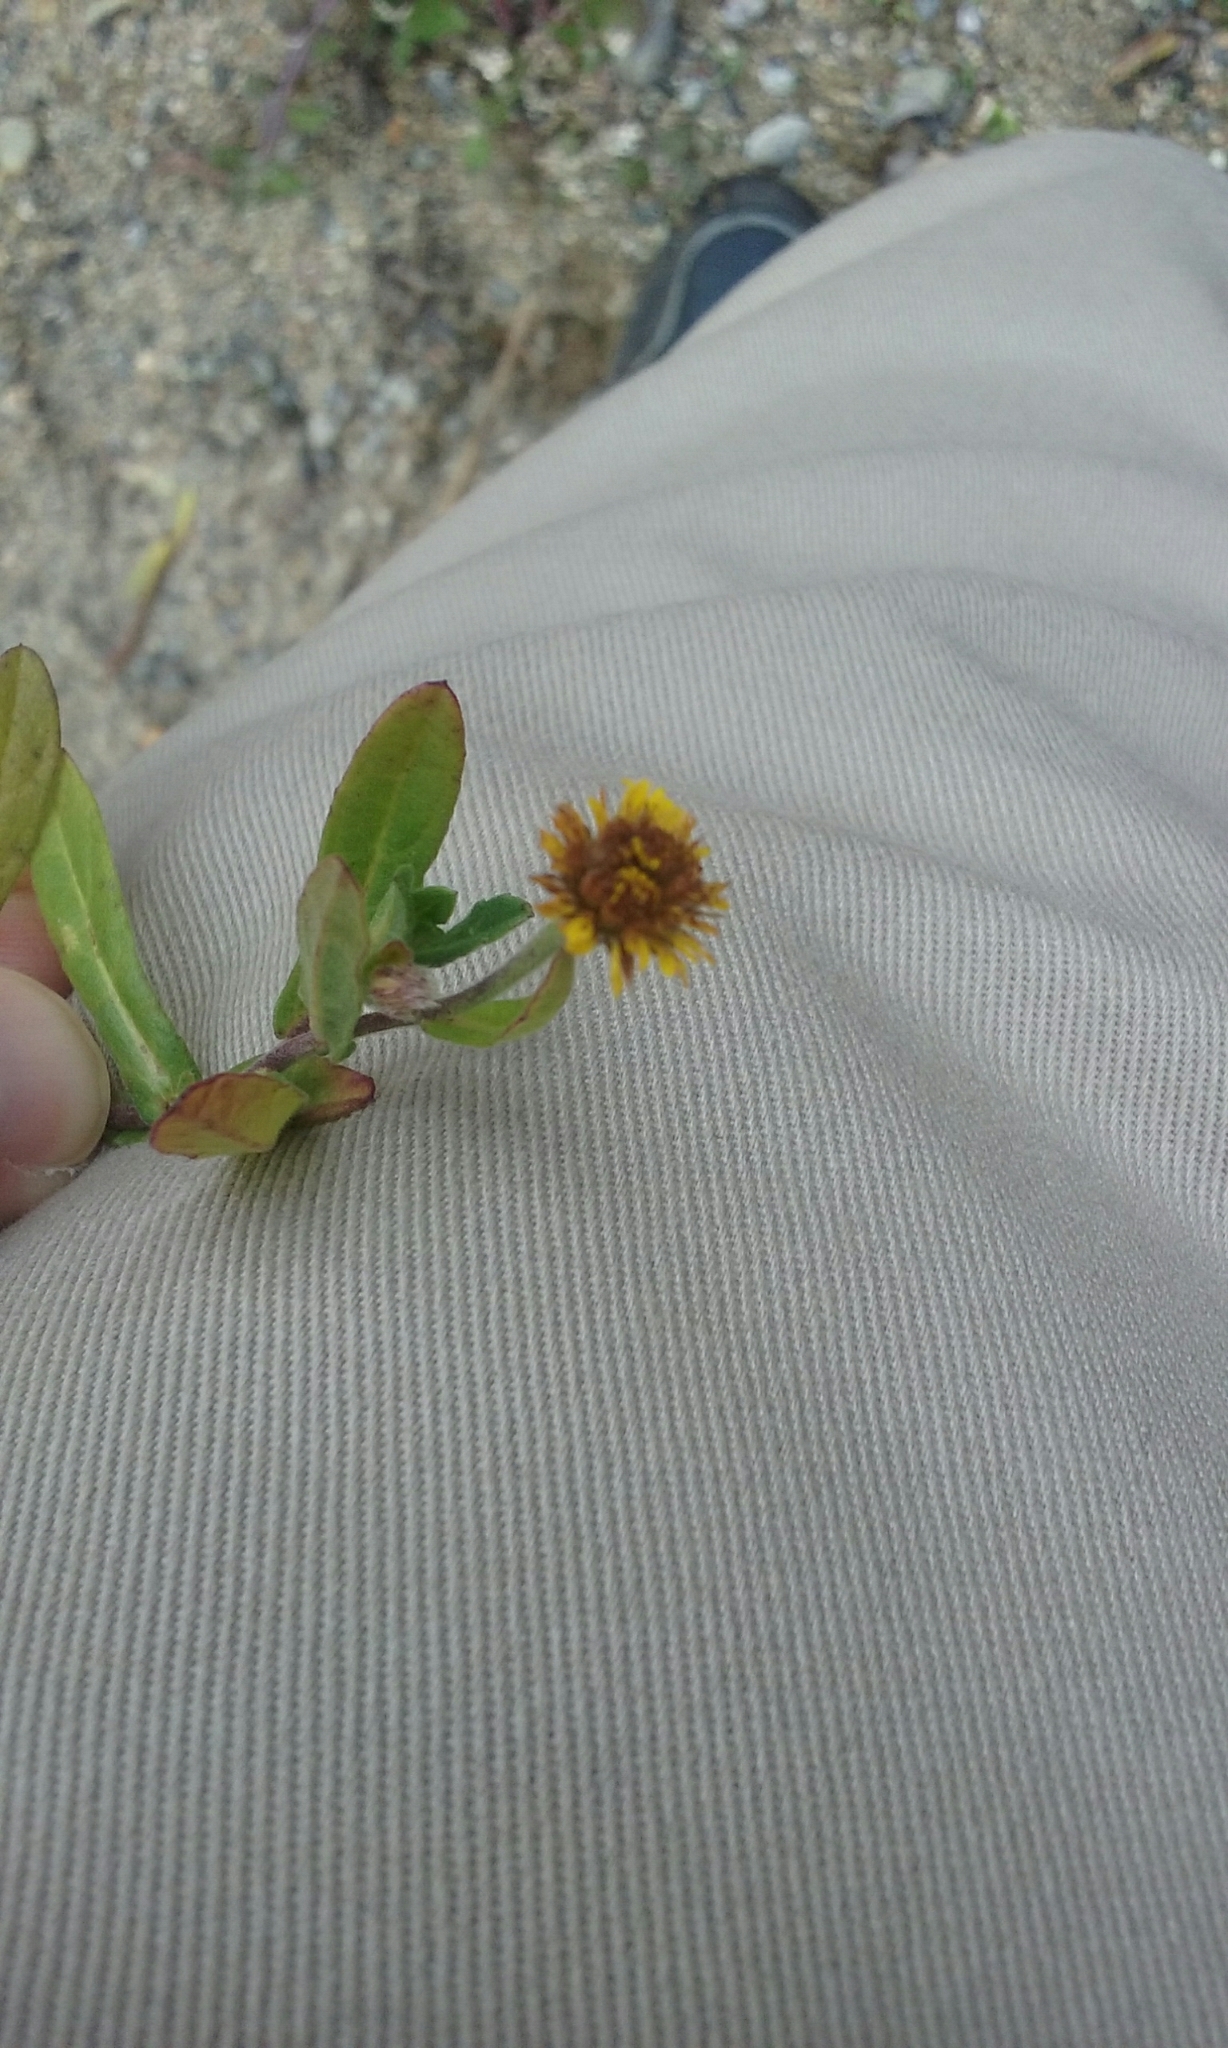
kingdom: Plantae
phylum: Tracheophyta
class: Magnoliopsida
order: Asterales
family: Asteraceae
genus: Pulicaria
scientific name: Pulicaria paludosa
